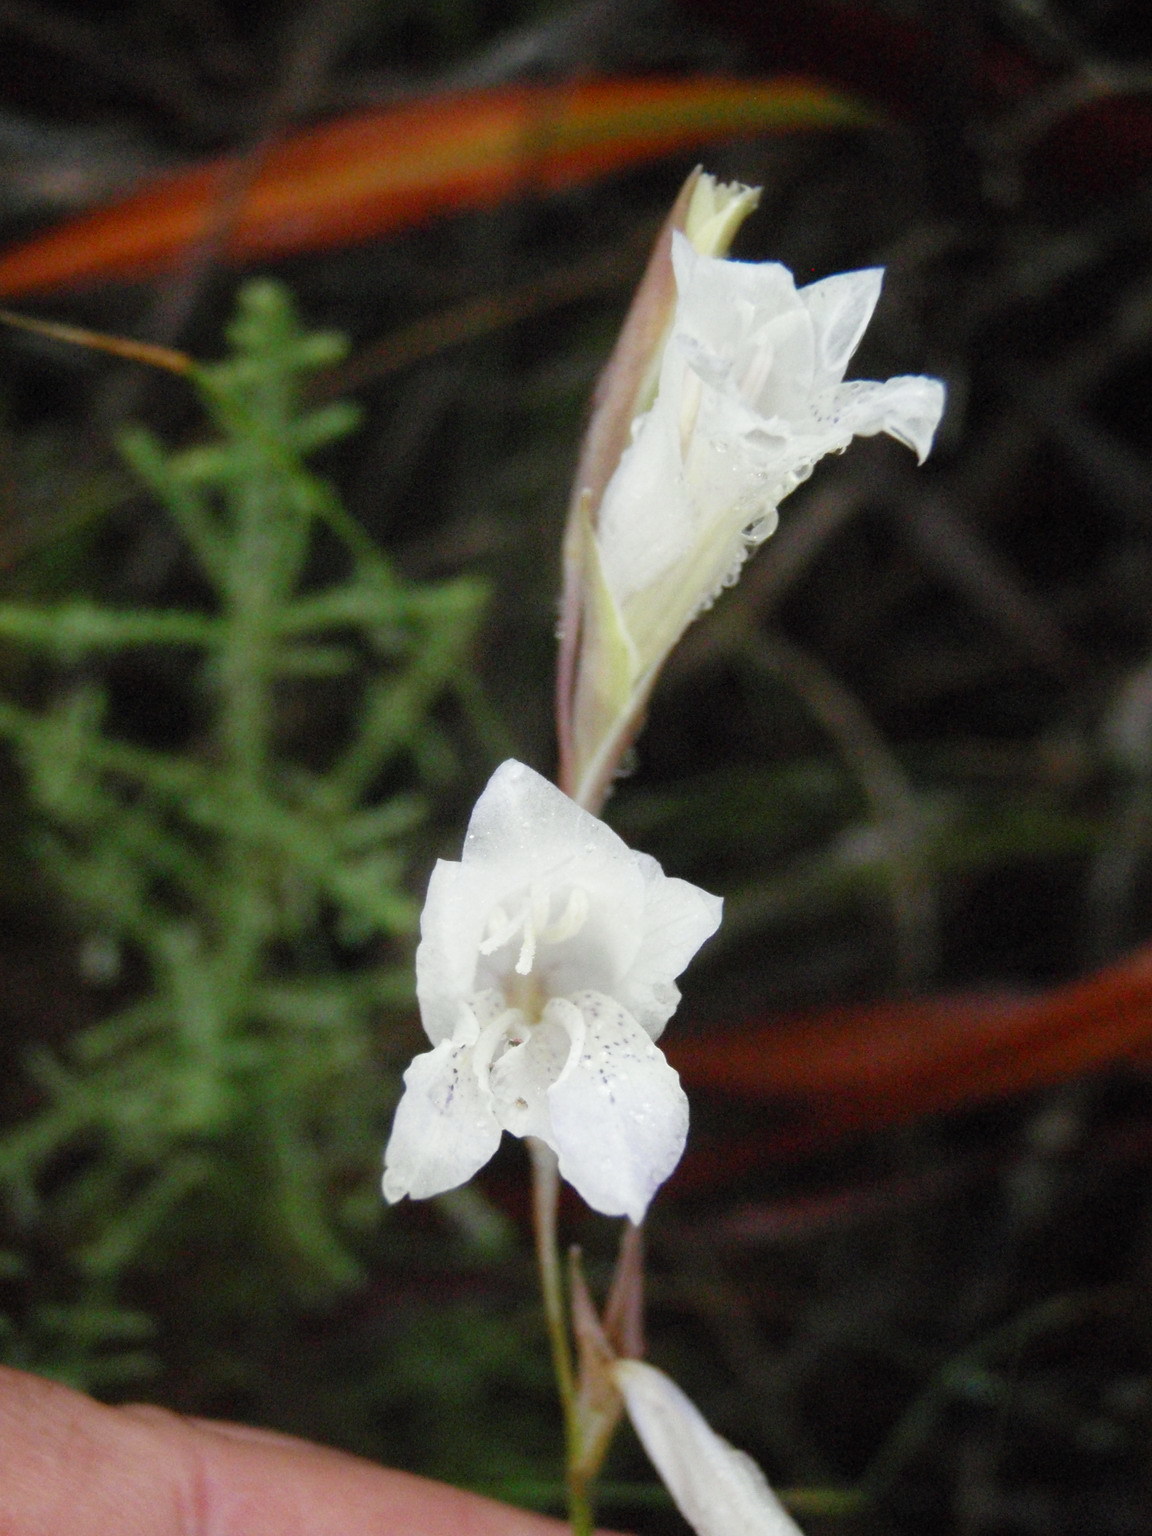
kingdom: Plantae
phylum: Tracheophyta
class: Liliopsida
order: Asparagales
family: Iridaceae
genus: Gladiolus
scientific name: Gladiolus vaginatus
